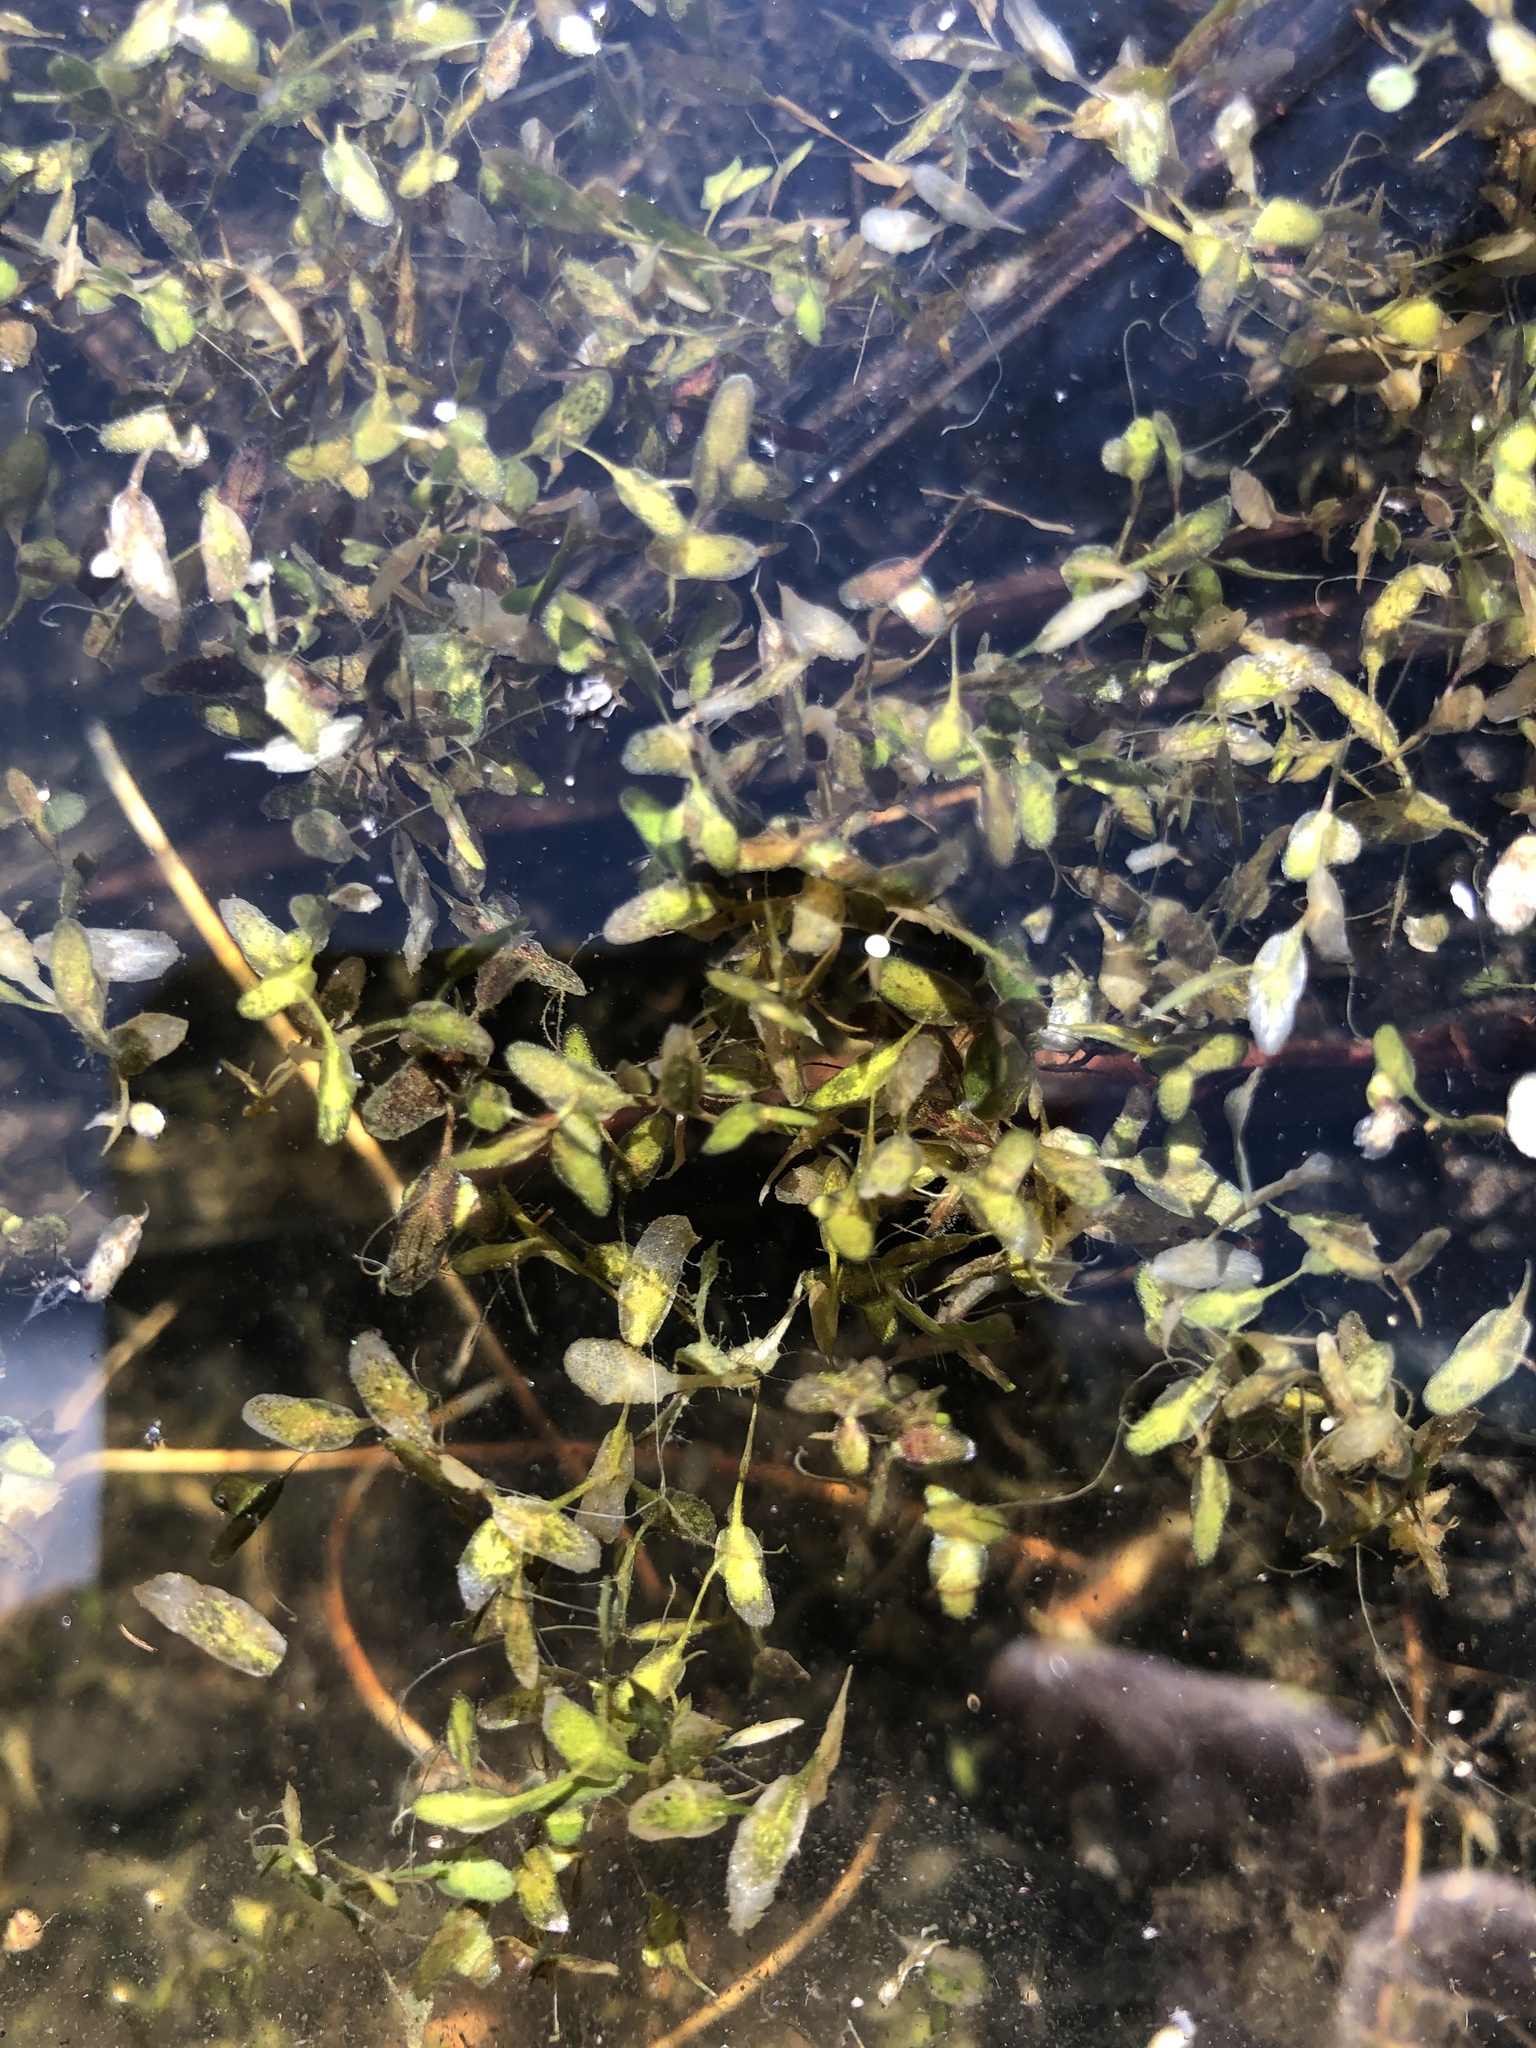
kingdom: Plantae
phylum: Tracheophyta
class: Liliopsida
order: Alismatales
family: Araceae
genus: Lemna
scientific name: Lemna trisulca
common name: Ivy-leaved duckweed
